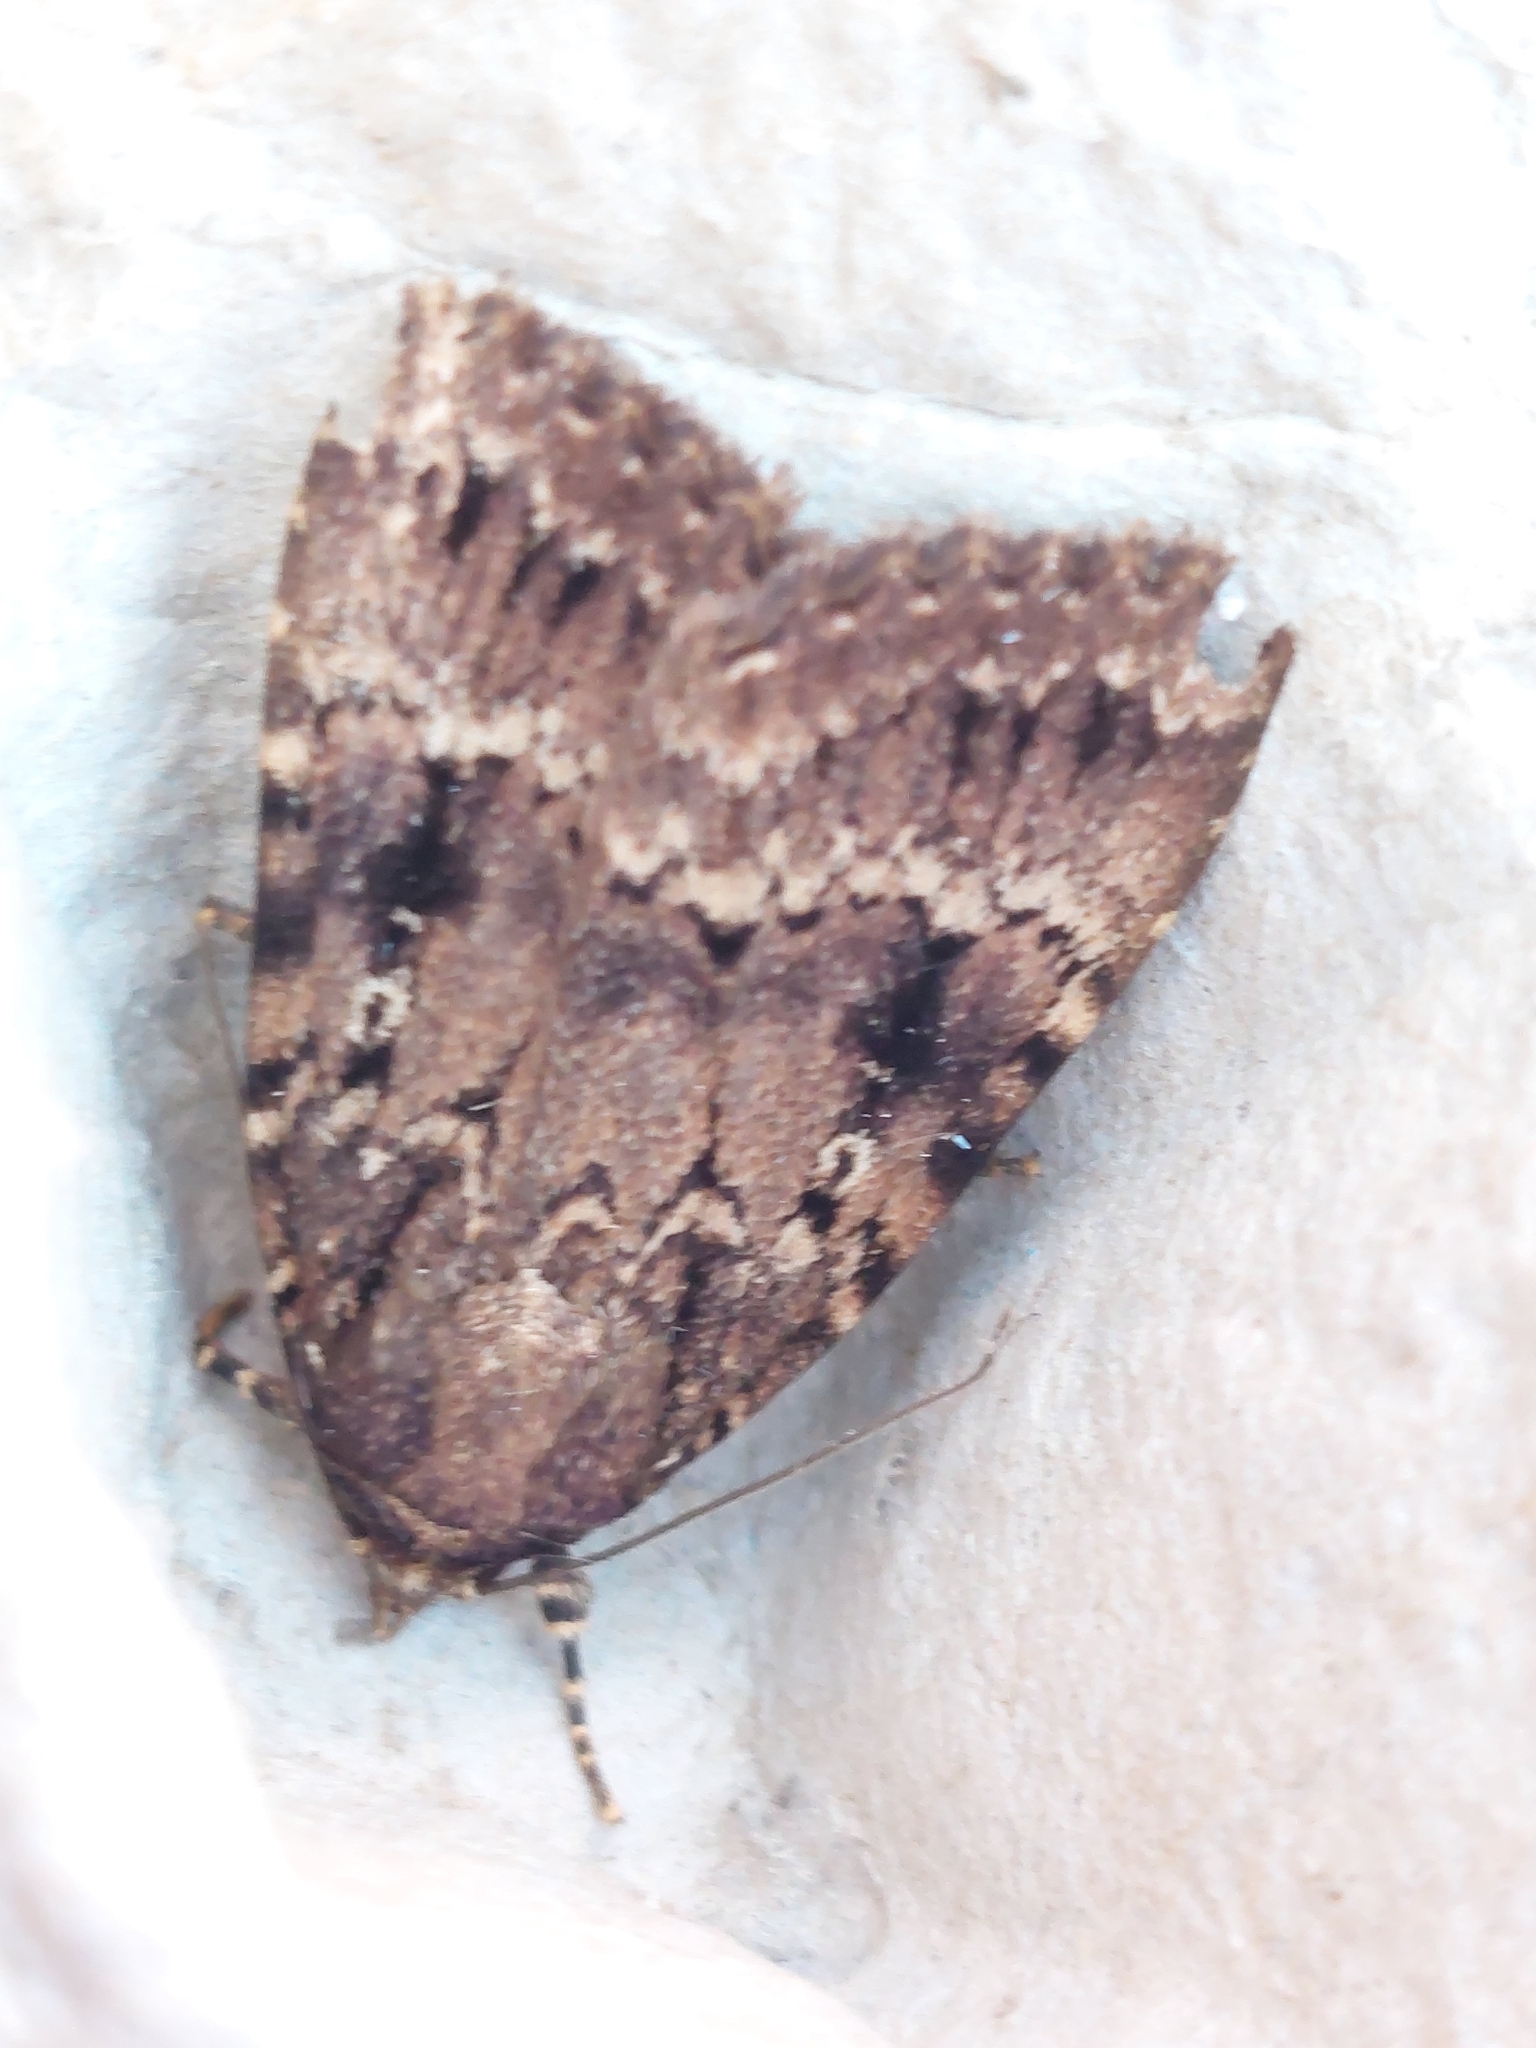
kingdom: Animalia
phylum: Arthropoda
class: Insecta
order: Lepidoptera
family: Noctuidae
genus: Amphipyra
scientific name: Amphipyra
